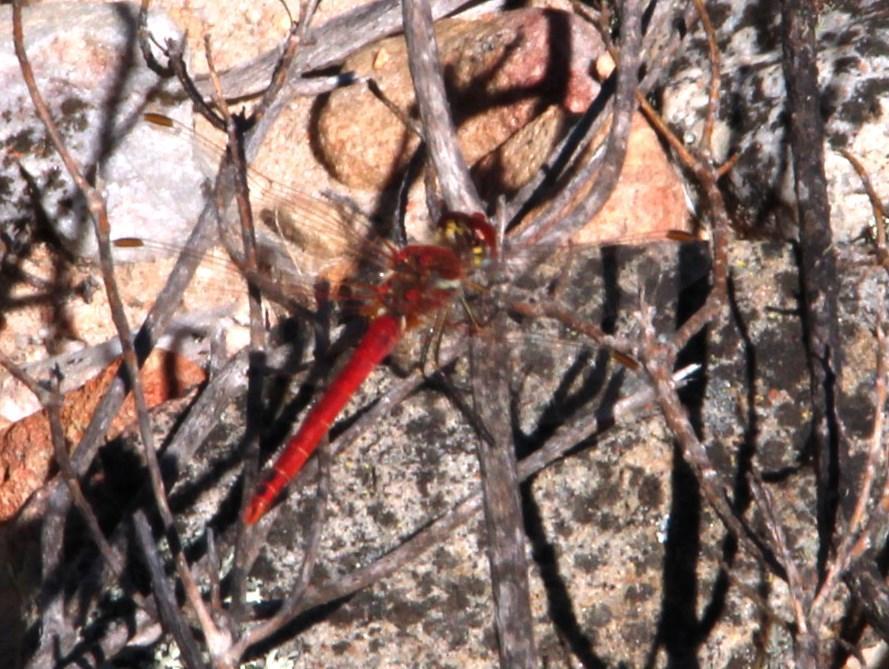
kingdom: Animalia
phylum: Arthropoda
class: Insecta
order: Odonata
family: Libellulidae
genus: Sympetrum
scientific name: Sympetrum fonscolombii
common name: Red-veined darter
